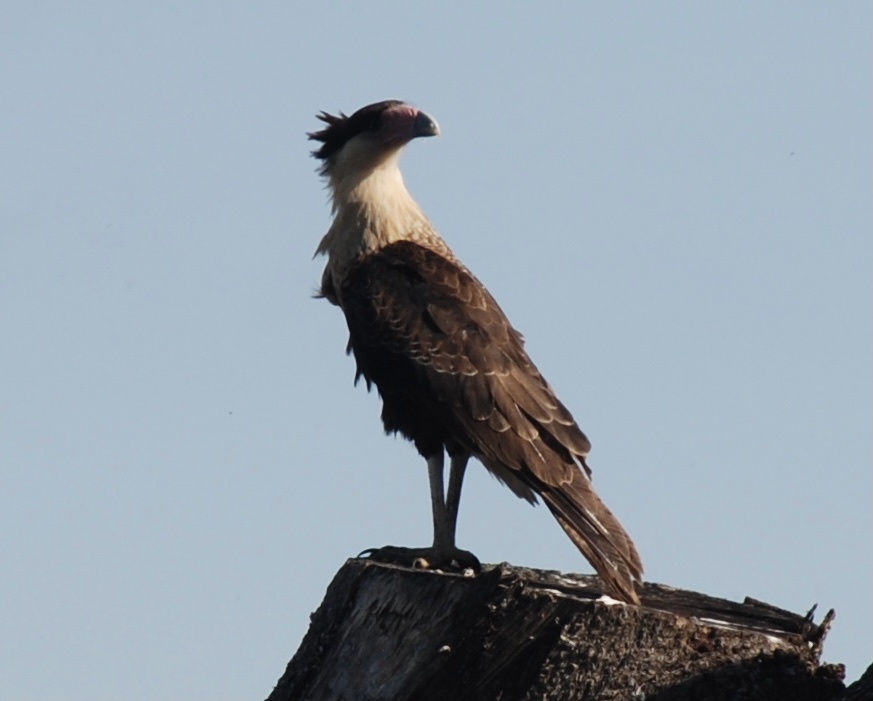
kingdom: Animalia
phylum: Chordata
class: Aves
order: Falconiformes
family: Falconidae
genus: Caracara
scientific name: Caracara plancus
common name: Southern caracara
